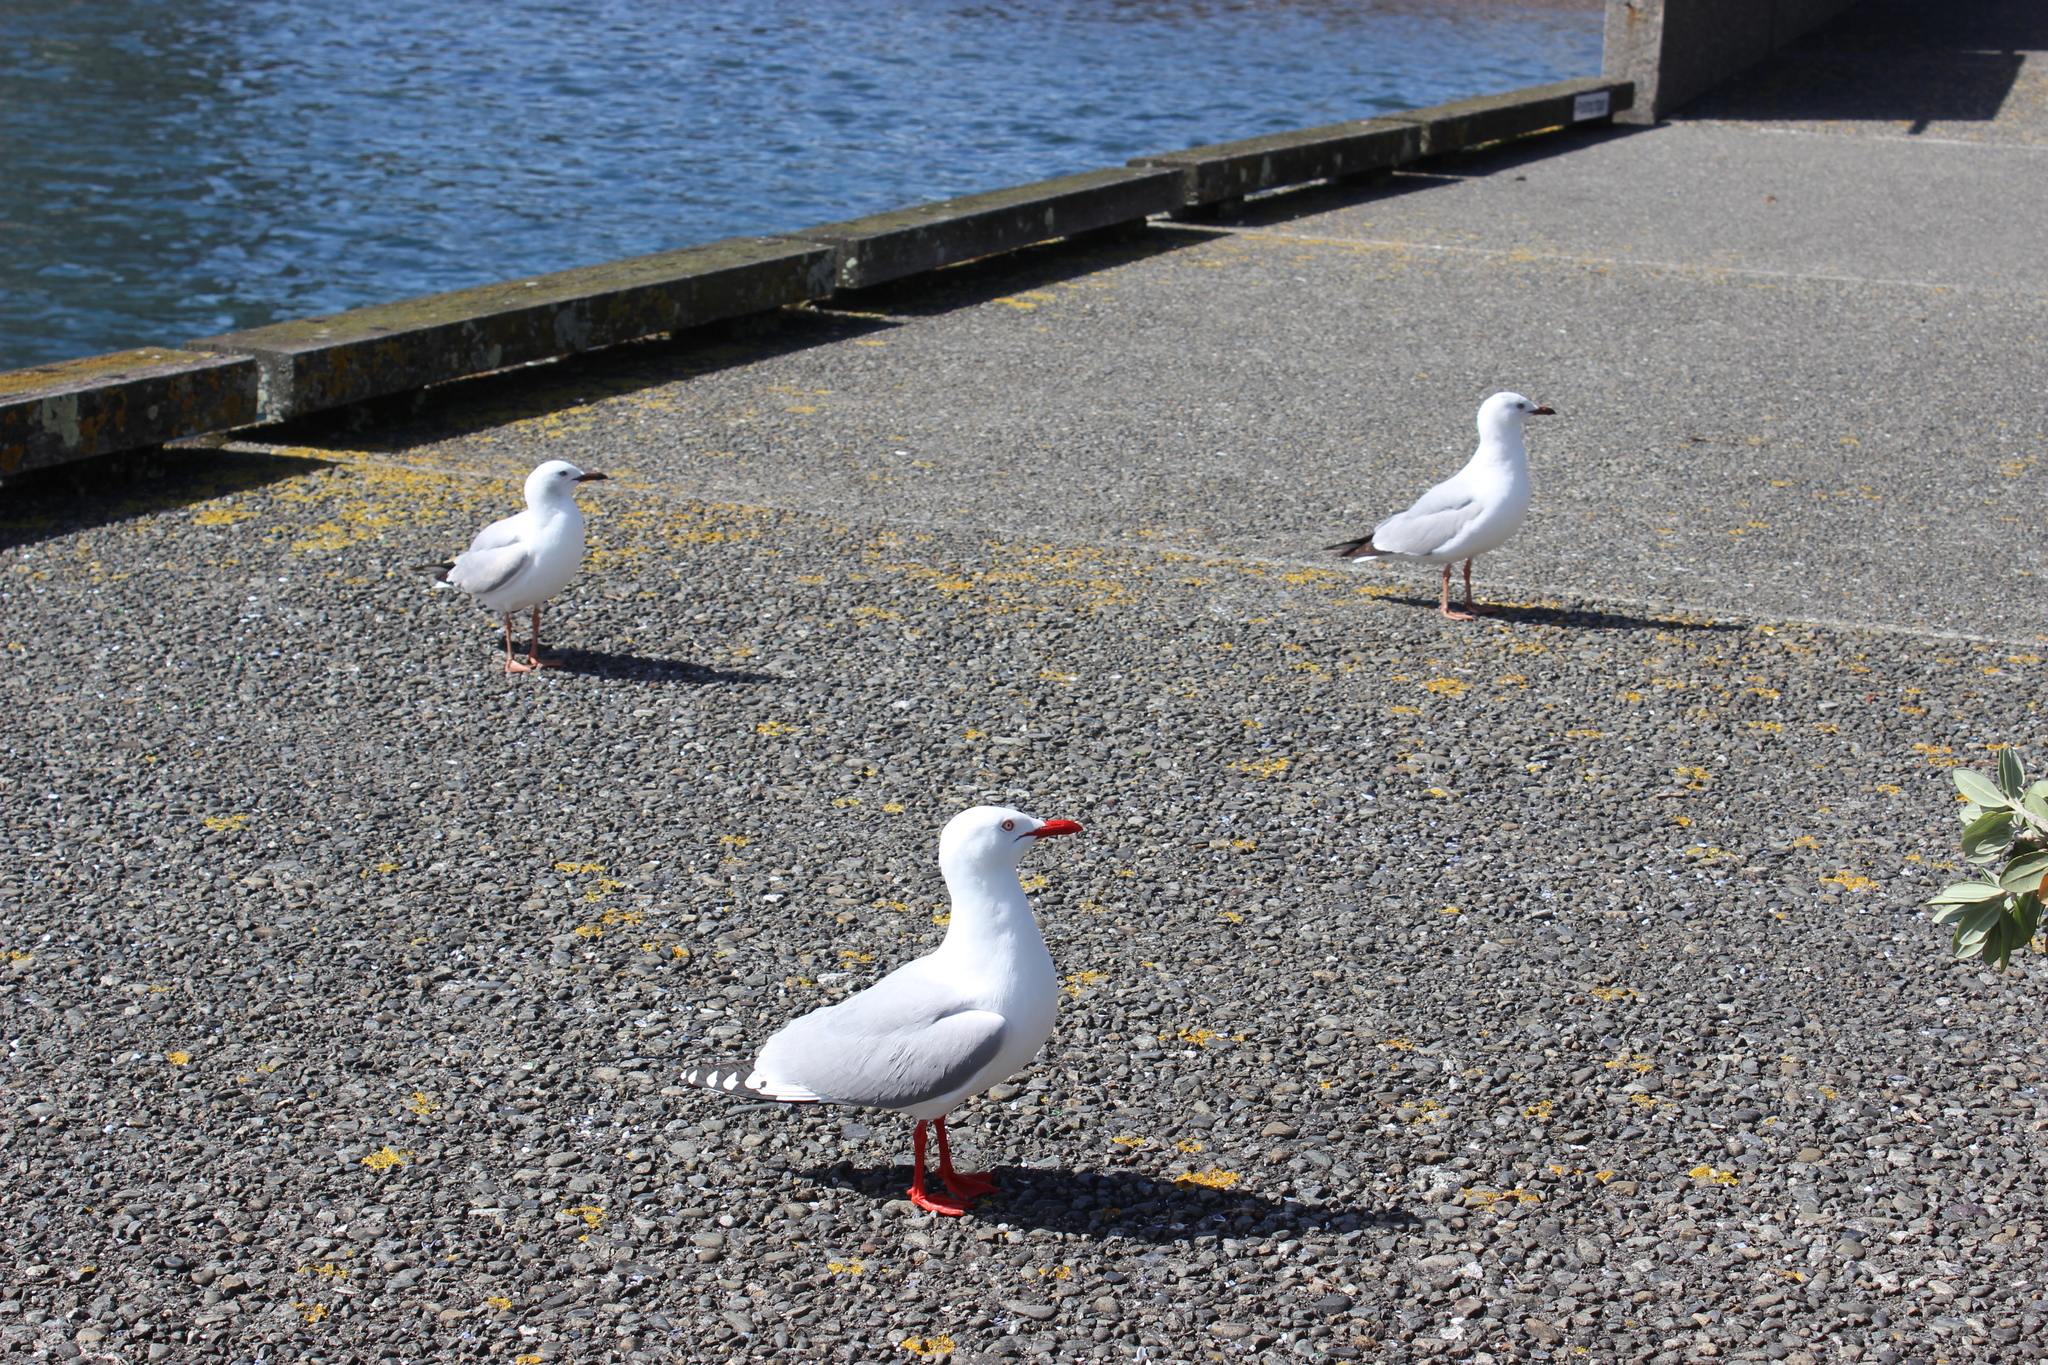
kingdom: Animalia
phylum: Chordata
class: Aves
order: Charadriiformes
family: Laridae
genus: Chroicocephalus
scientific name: Chroicocephalus novaehollandiae
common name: Silver gull
